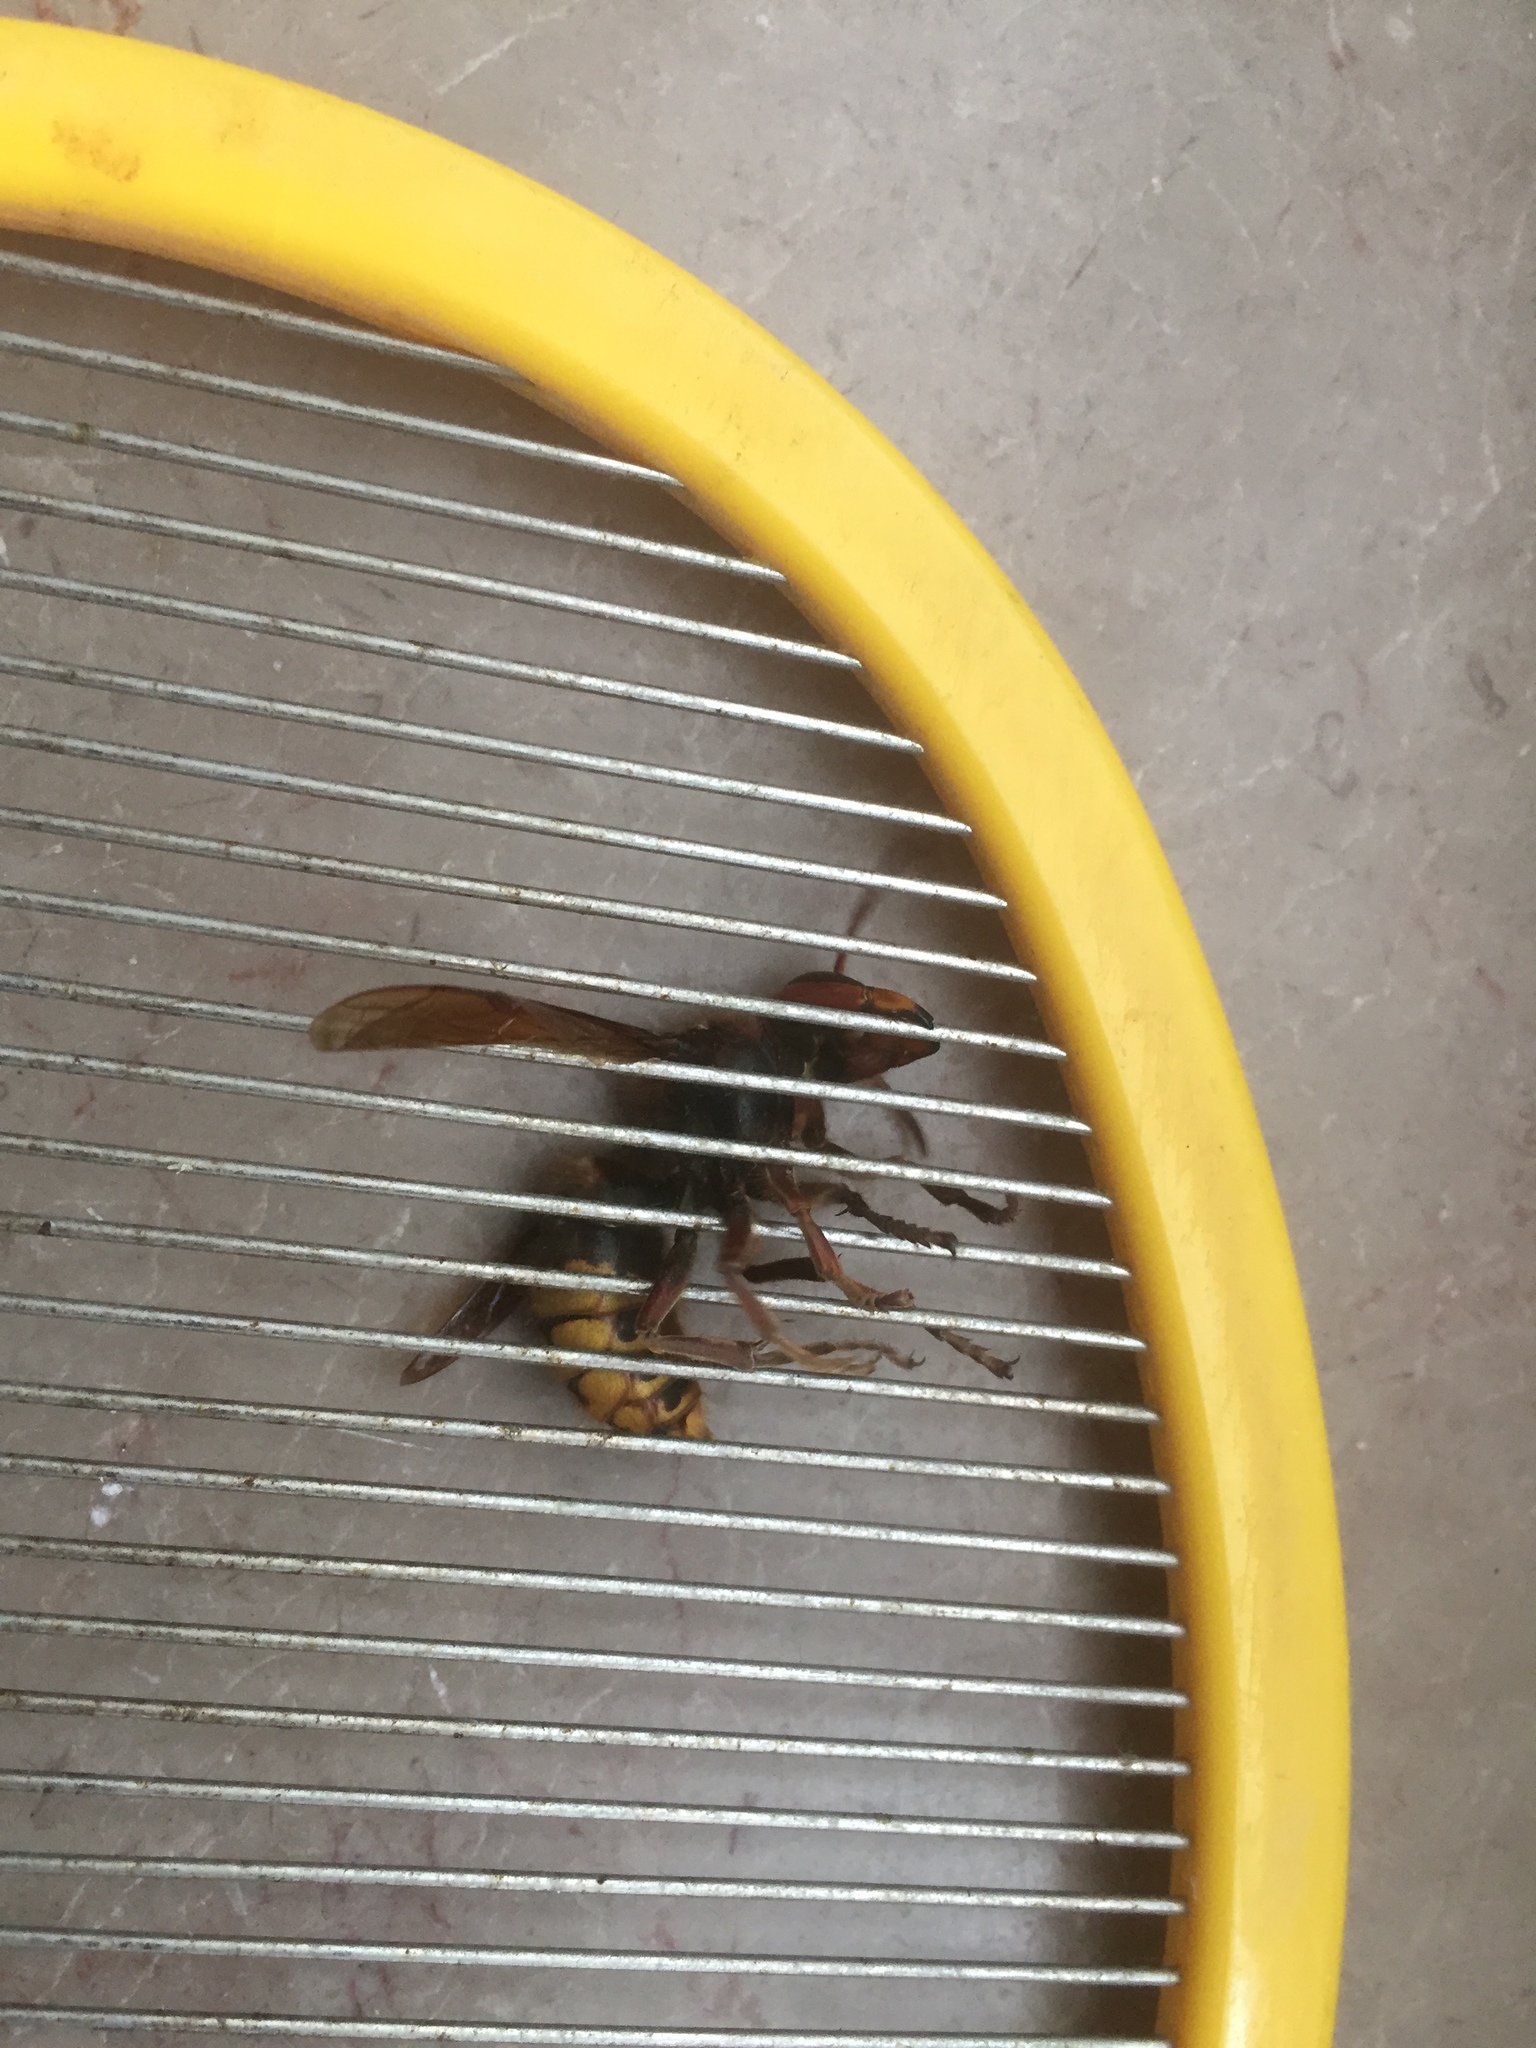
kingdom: Animalia
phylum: Arthropoda
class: Insecta
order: Hymenoptera
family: Vespidae
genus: Vespa
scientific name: Vespa crabro
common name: Hornet
